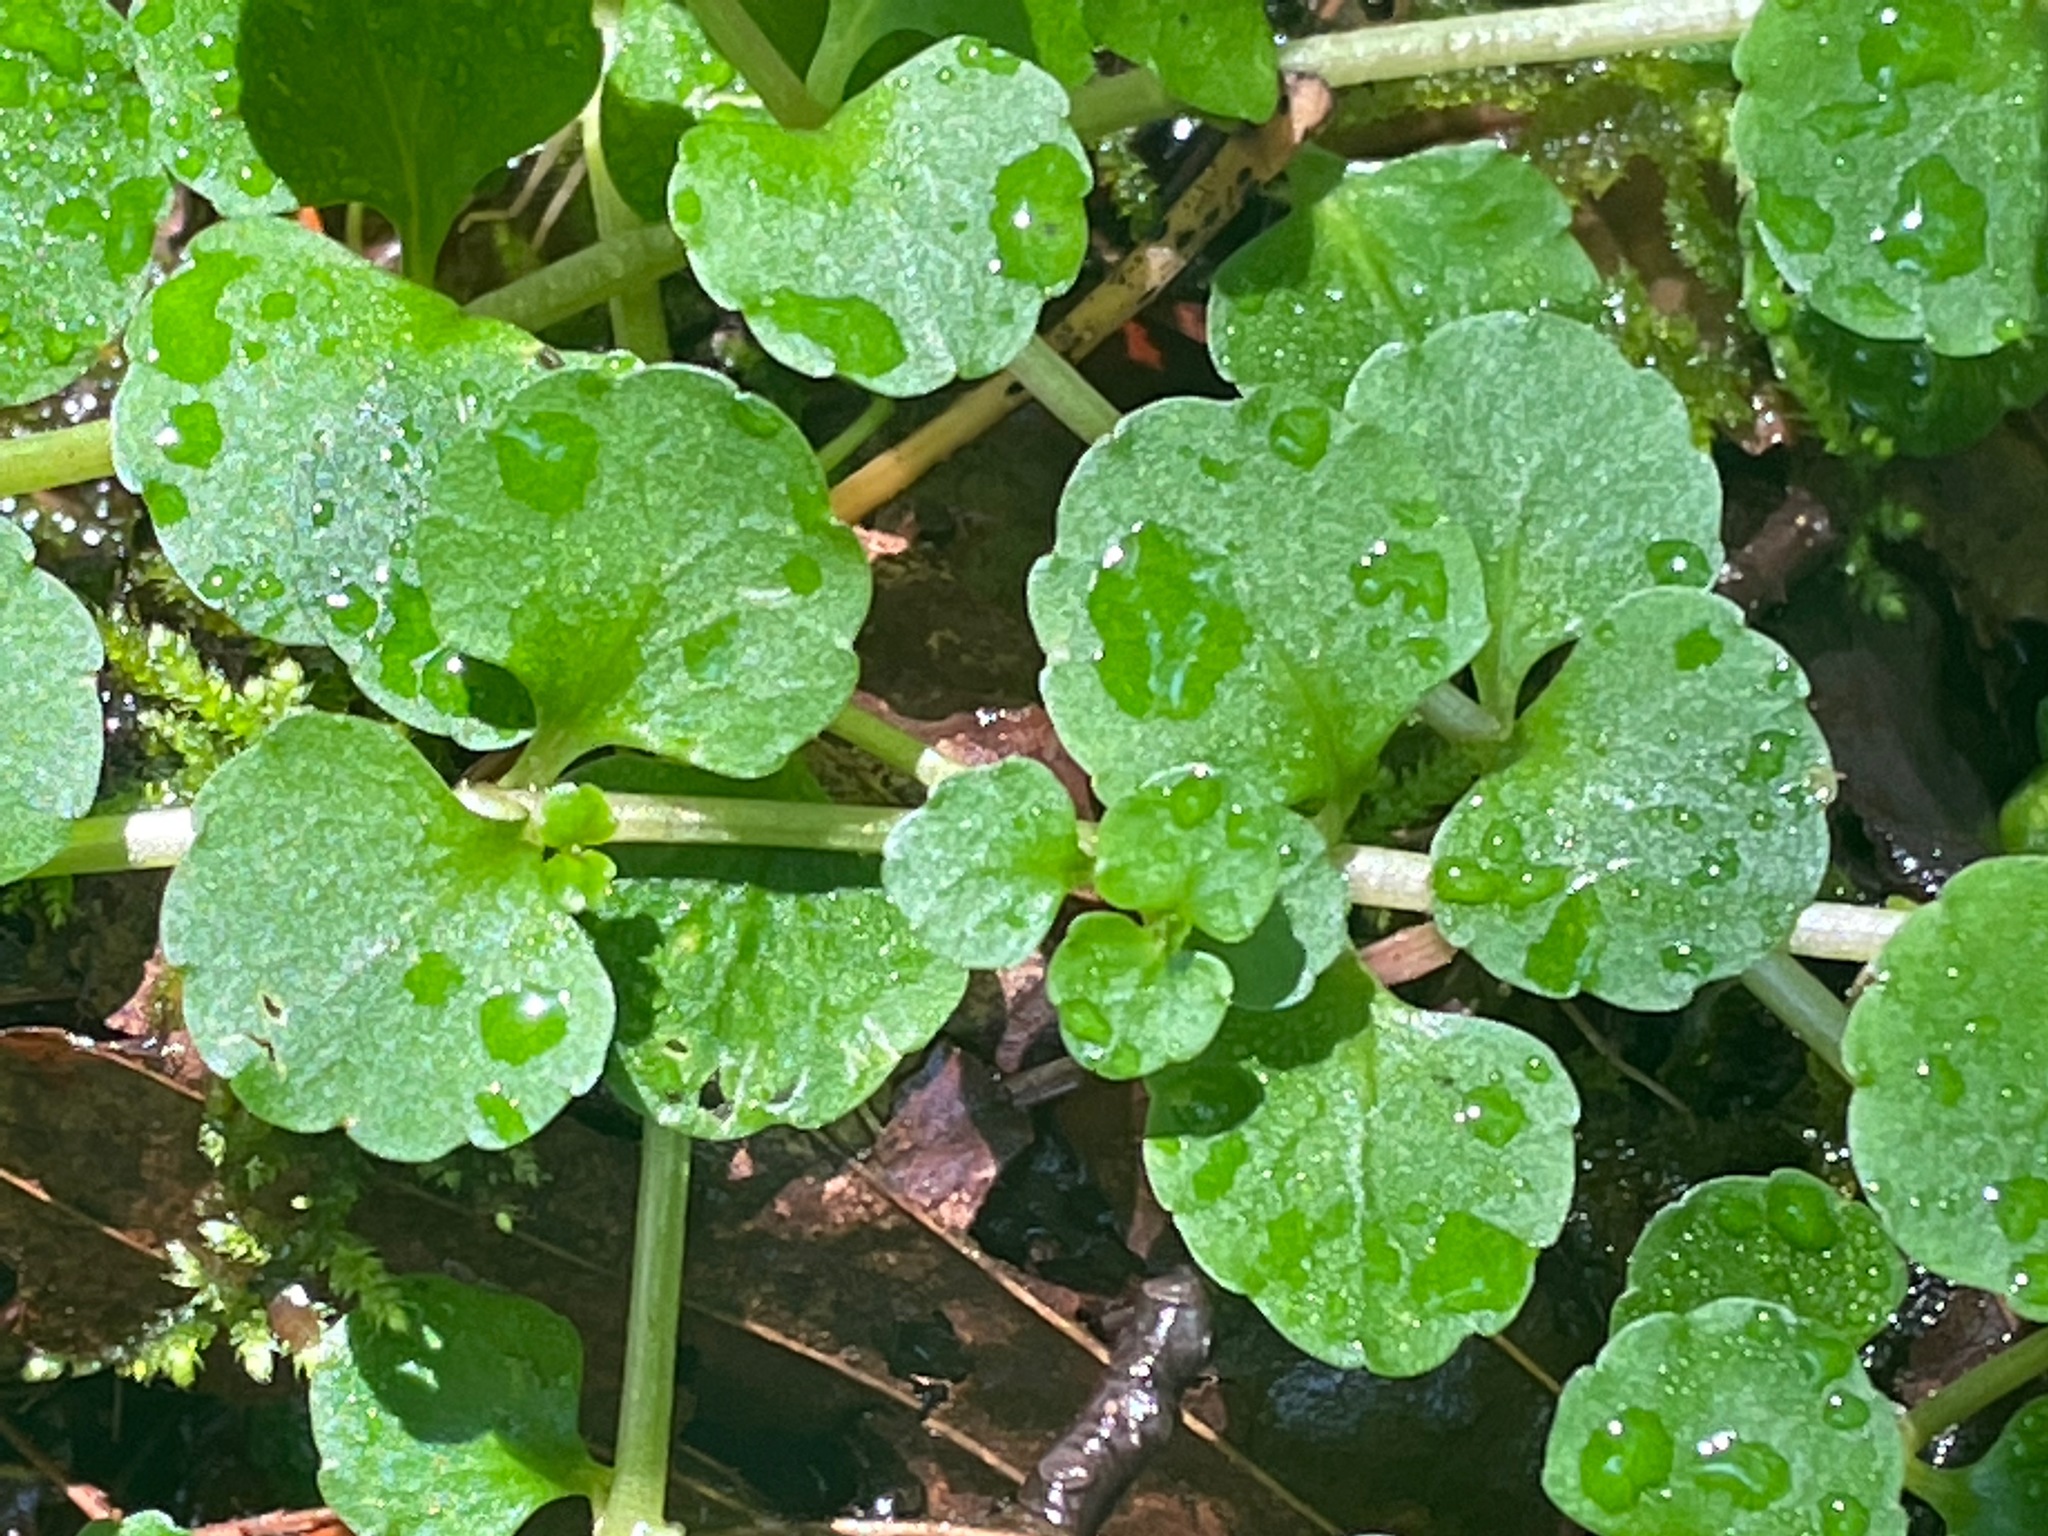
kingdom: Plantae
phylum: Tracheophyta
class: Magnoliopsida
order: Saxifragales
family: Saxifragaceae
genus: Chrysosplenium
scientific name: Chrysosplenium americanum
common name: American golden-saxifrage
